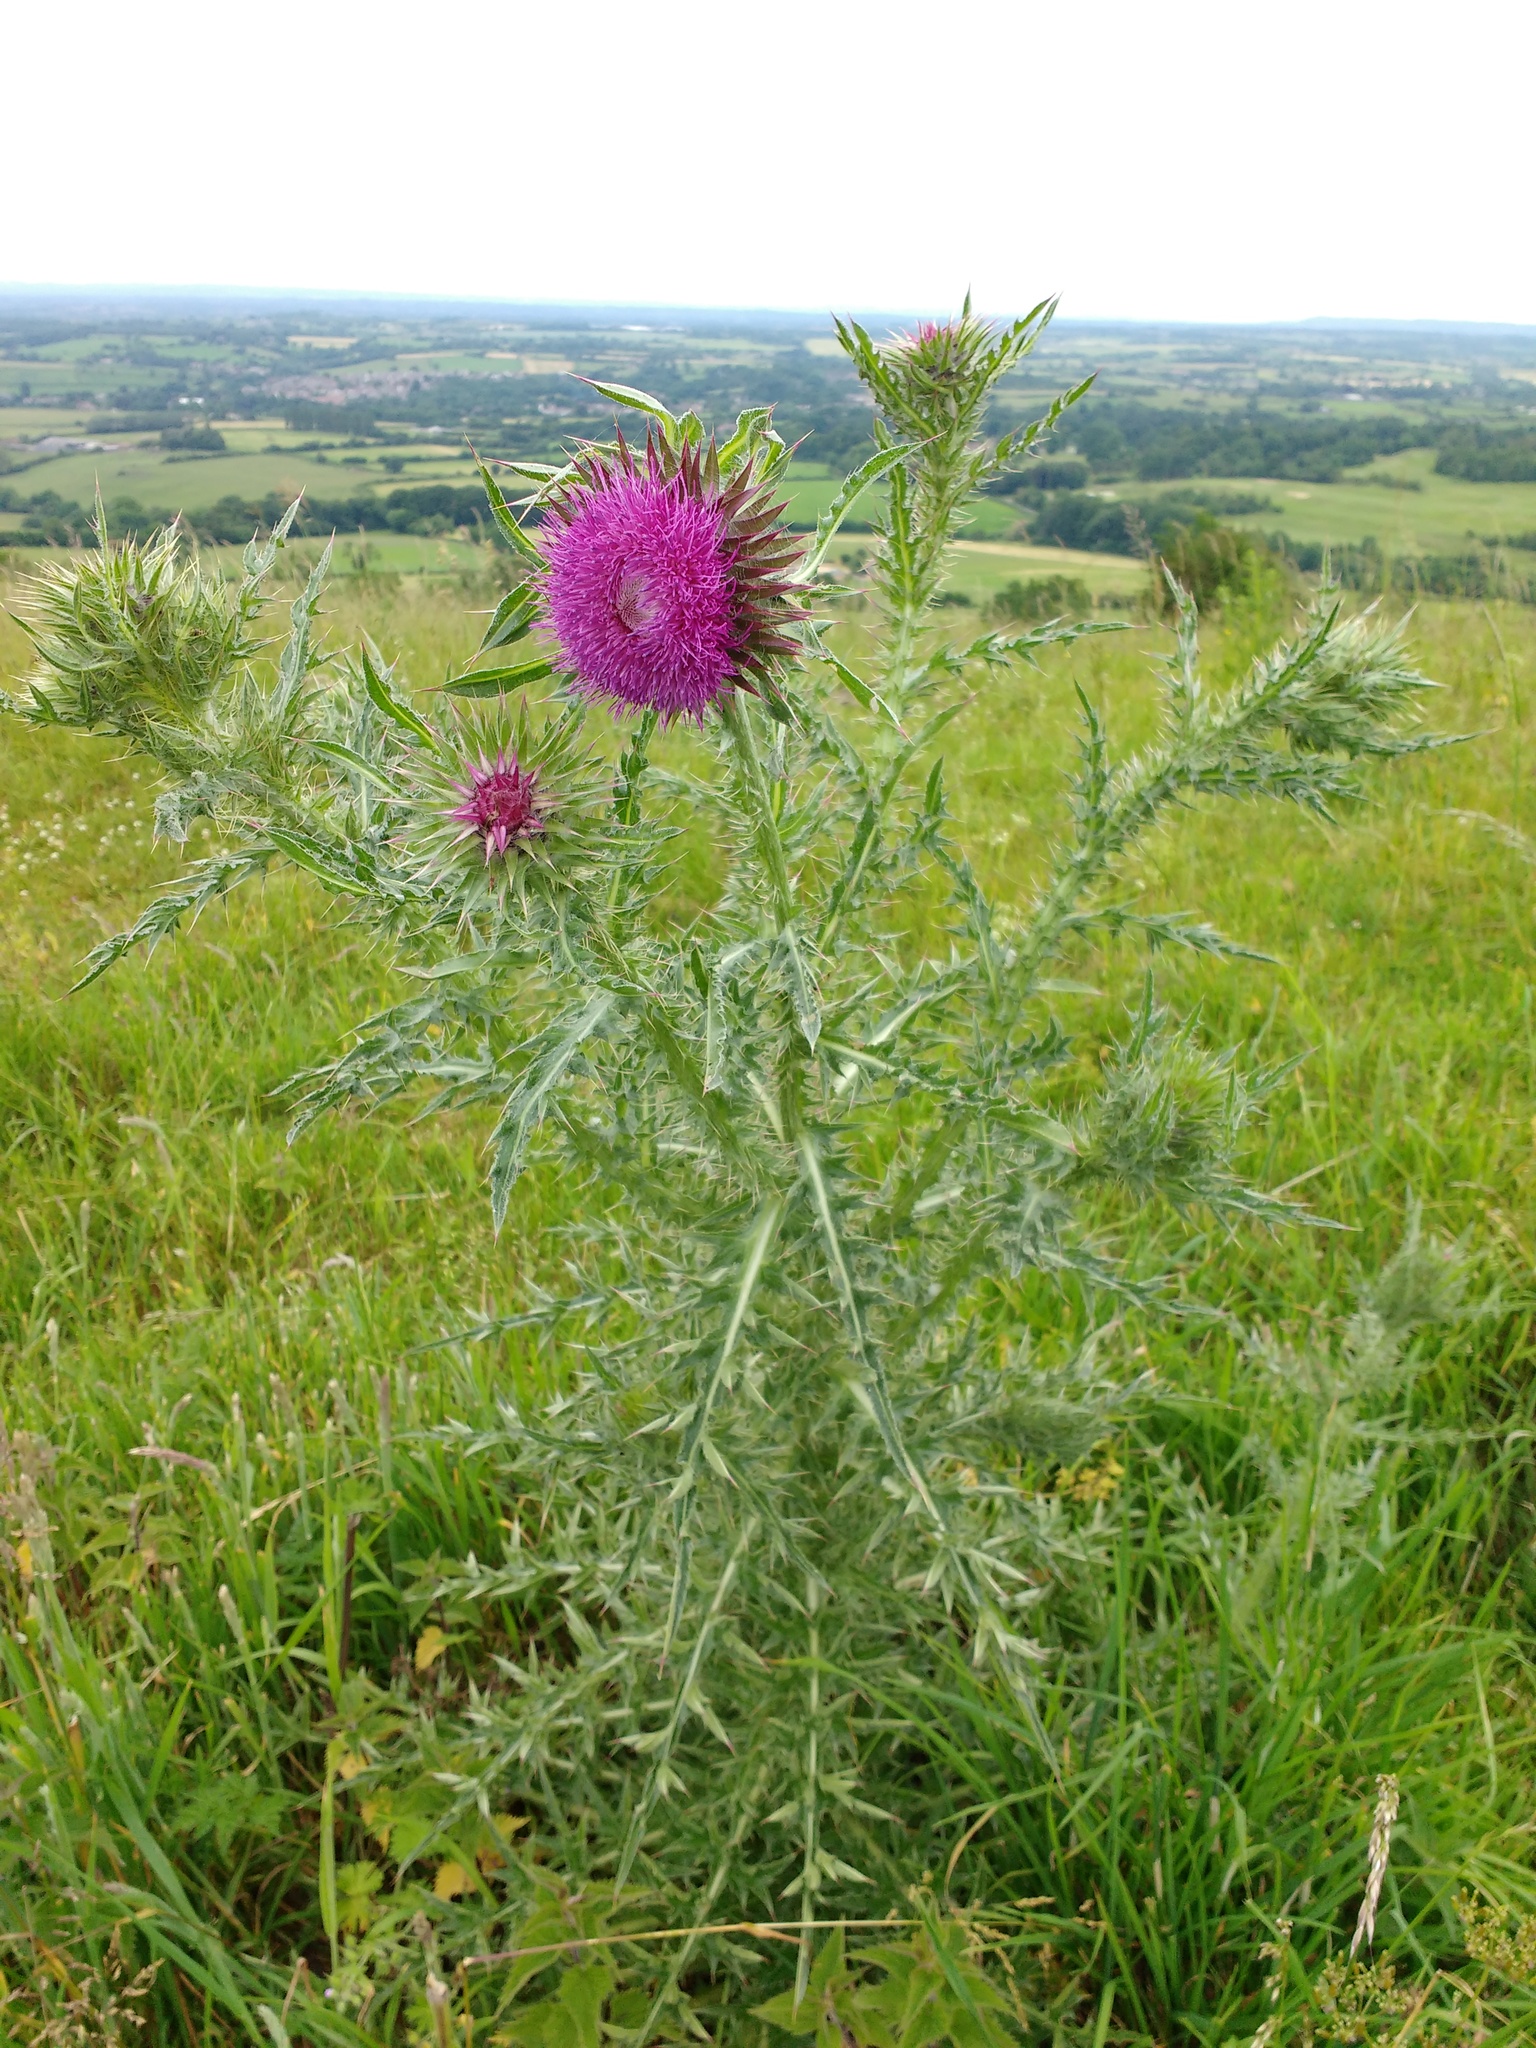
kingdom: Plantae
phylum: Tracheophyta
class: Magnoliopsida
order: Asterales
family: Asteraceae
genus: Carduus
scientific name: Carduus nutans
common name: Musk thistle
